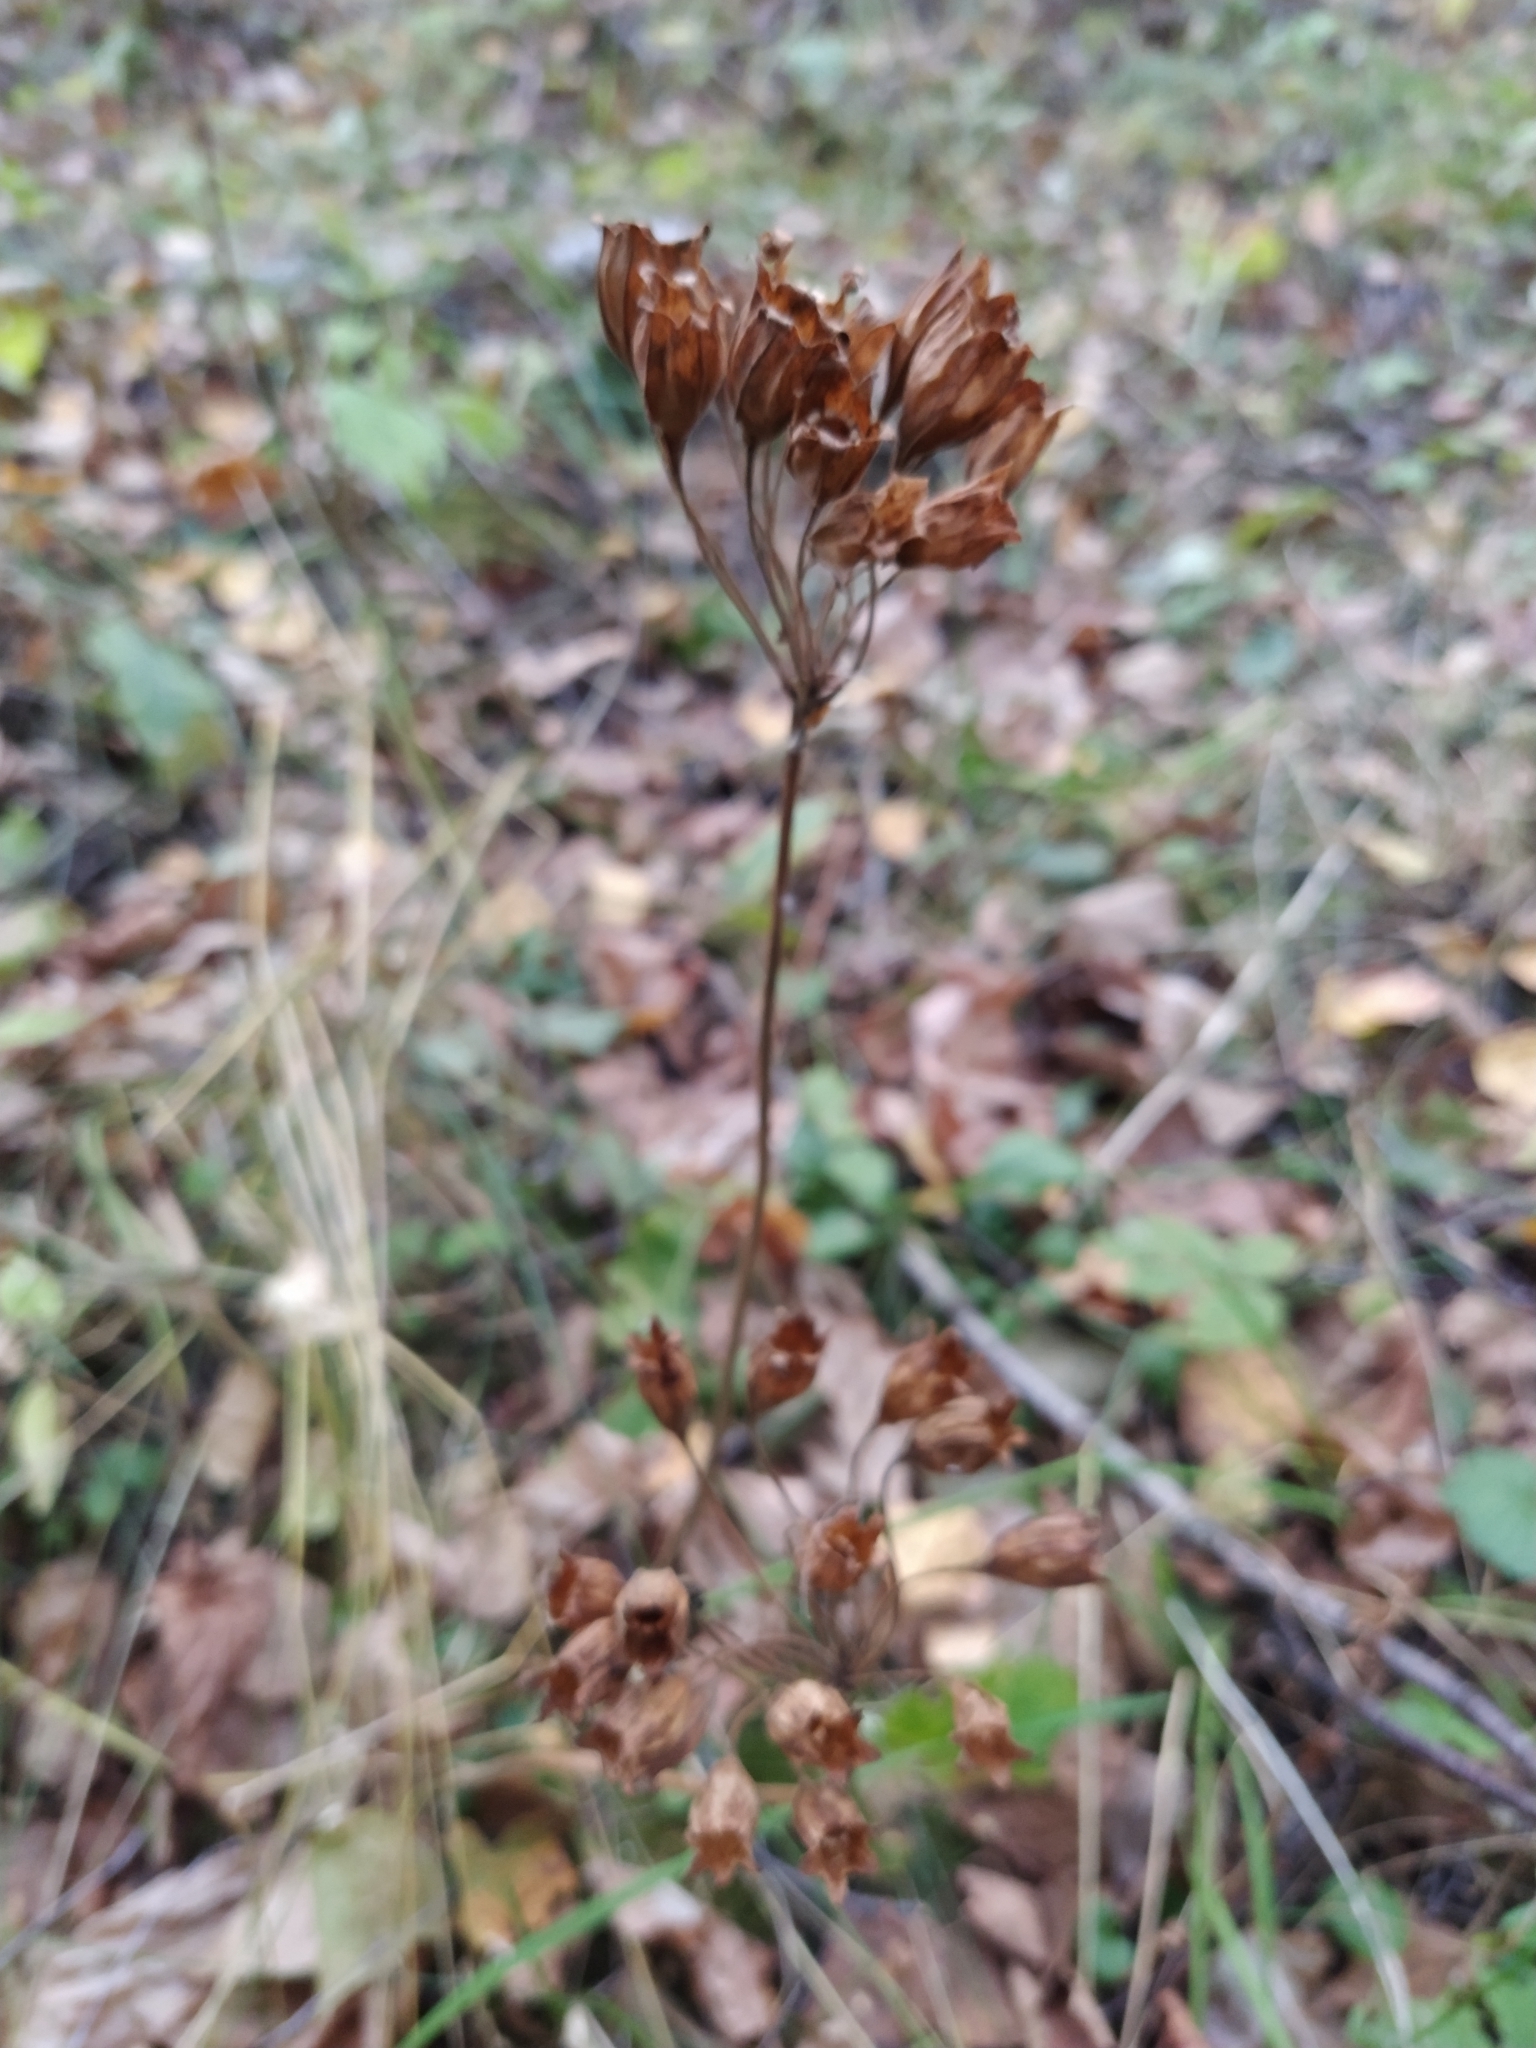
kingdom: Plantae
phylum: Tracheophyta
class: Magnoliopsida
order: Ericales
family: Primulaceae
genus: Primula
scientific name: Primula veris
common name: Cowslip
